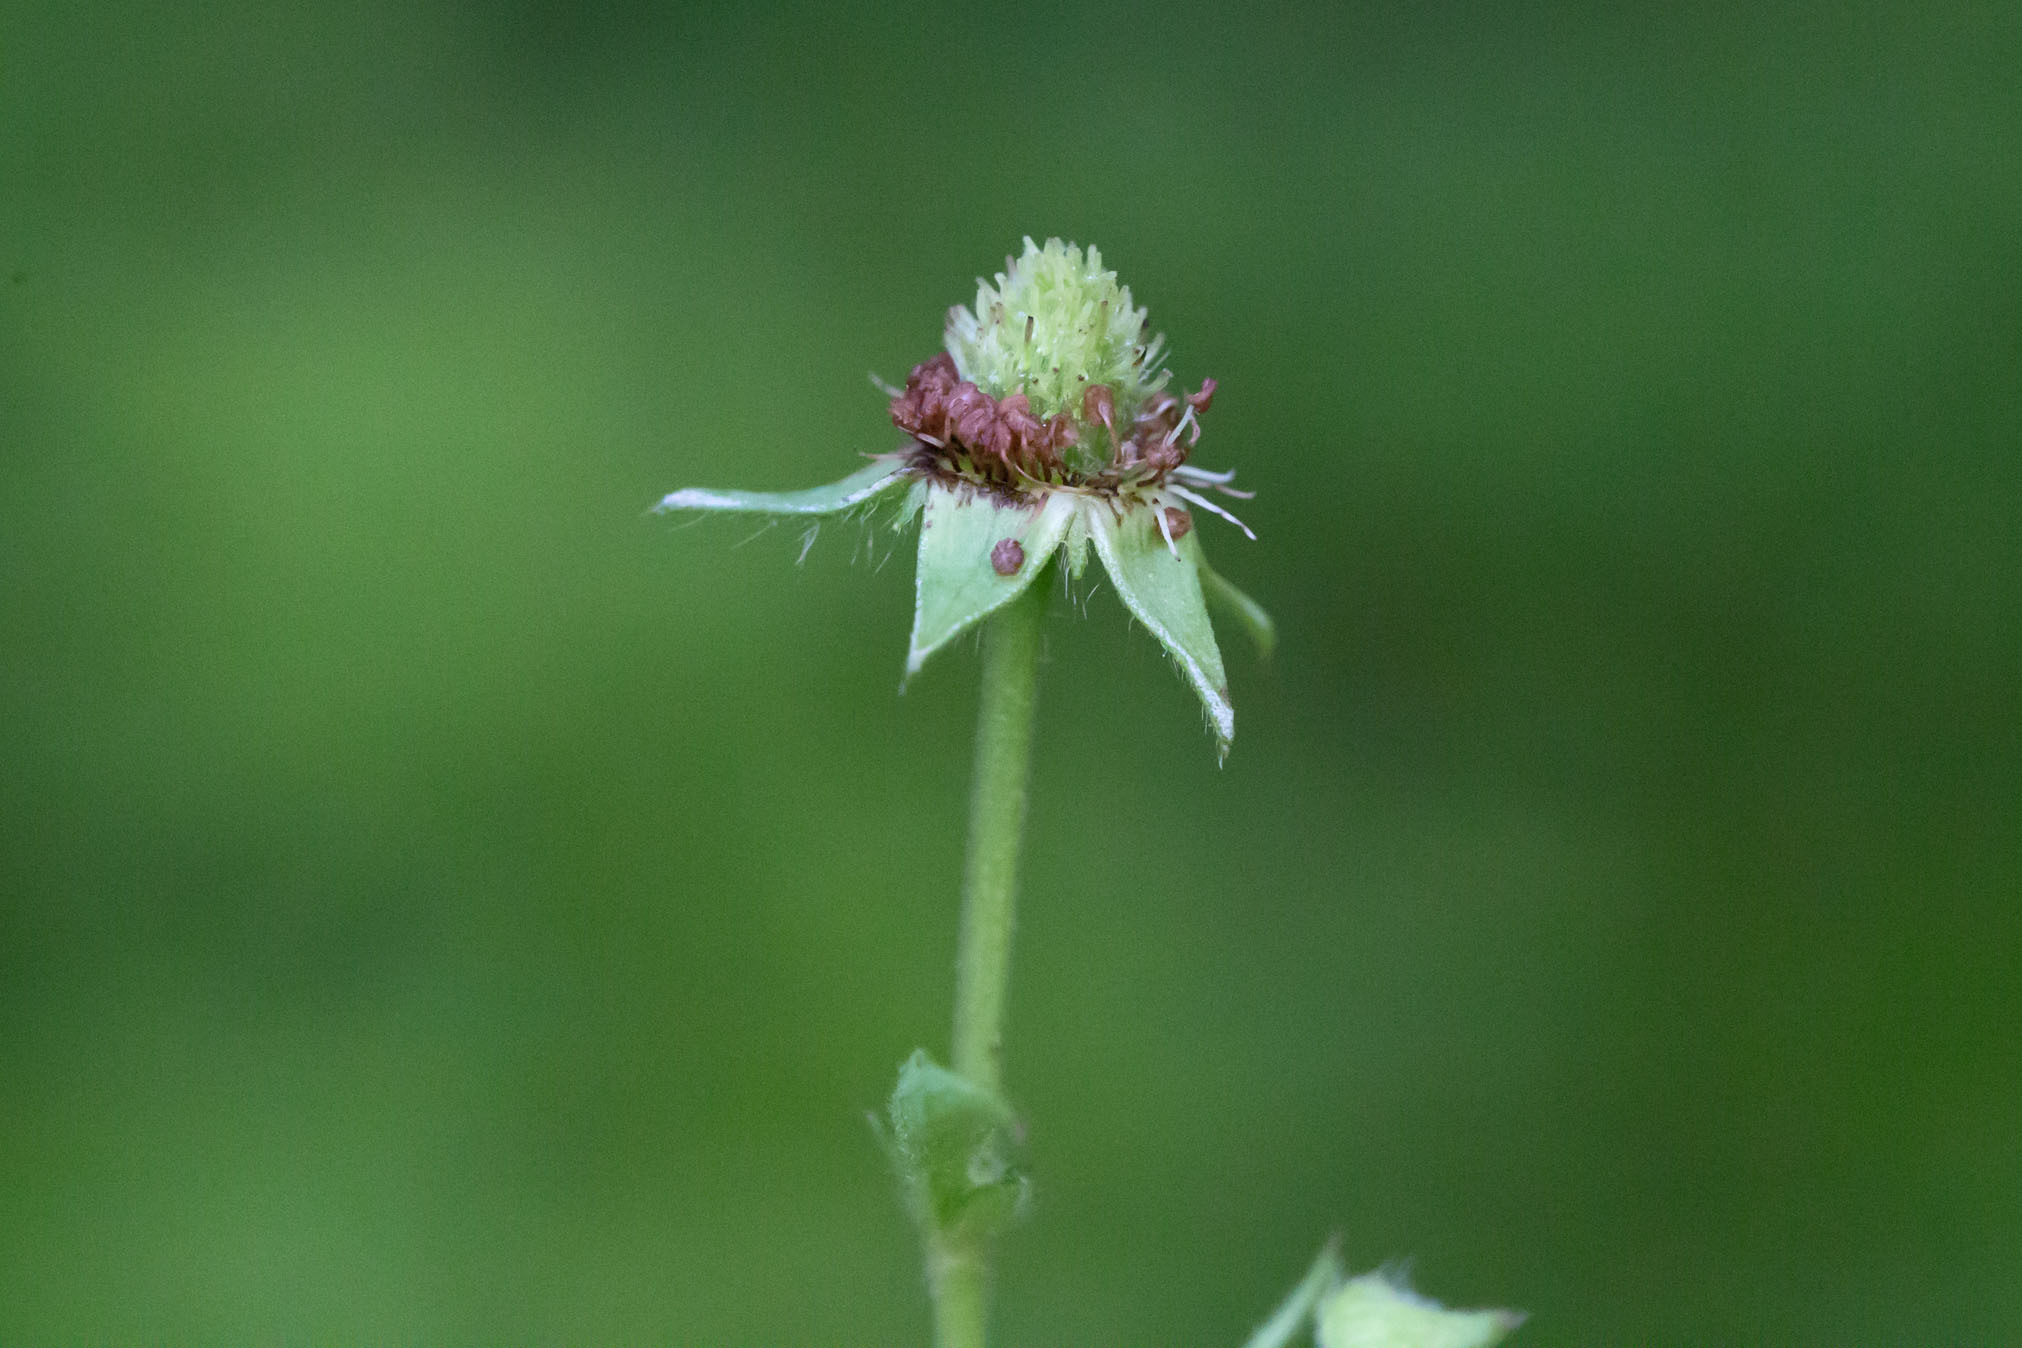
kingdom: Plantae
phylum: Tracheophyta
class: Magnoliopsida
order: Rosales
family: Rosaceae
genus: Geum
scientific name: Geum canadense
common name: White avens
